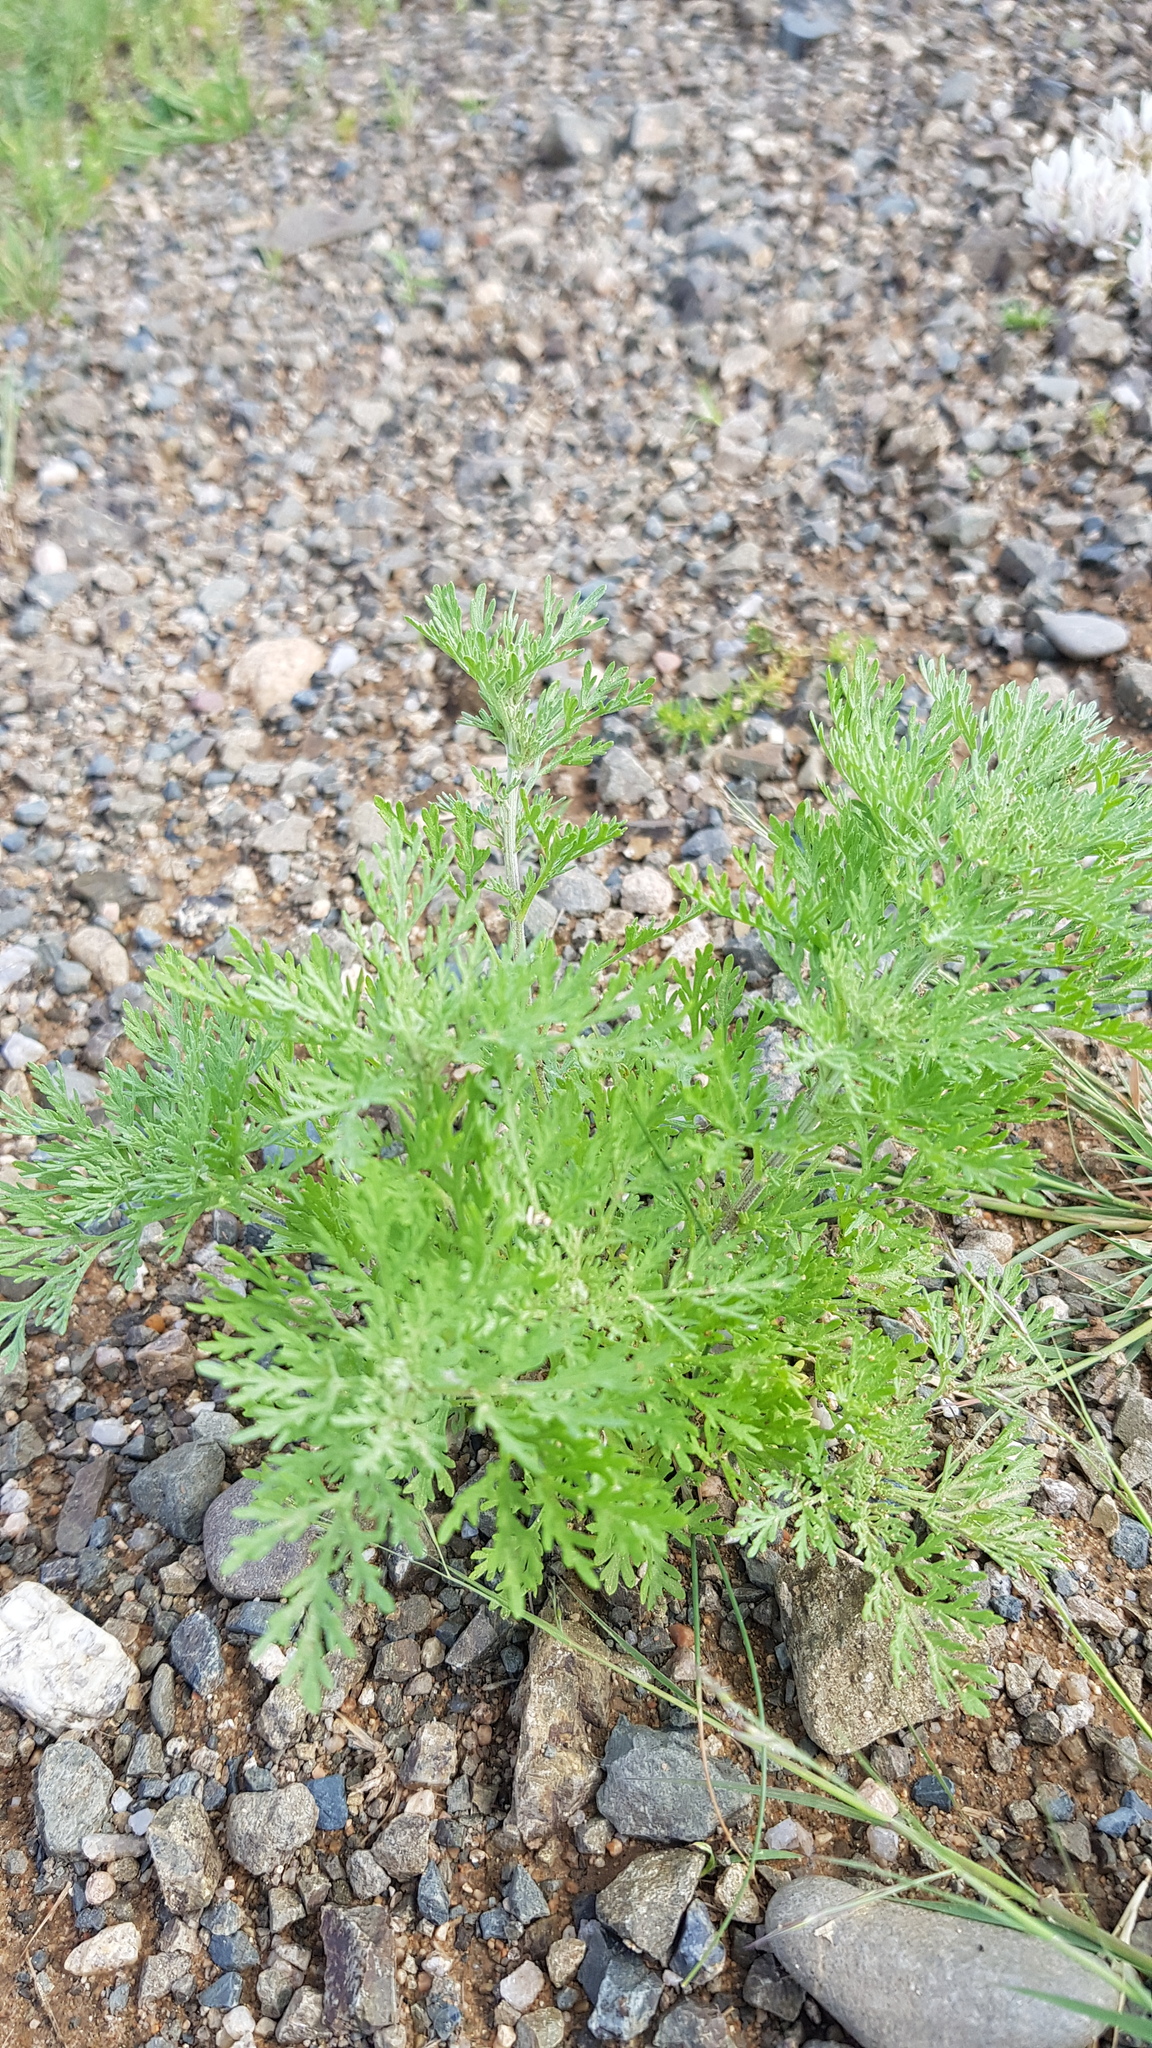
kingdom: Plantae
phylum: Tracheophyta
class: Magnoliopsida
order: Asterales
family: Asteraceae
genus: Artemisia
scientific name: Artemisia gmelinii
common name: Gmelin's wormwood
